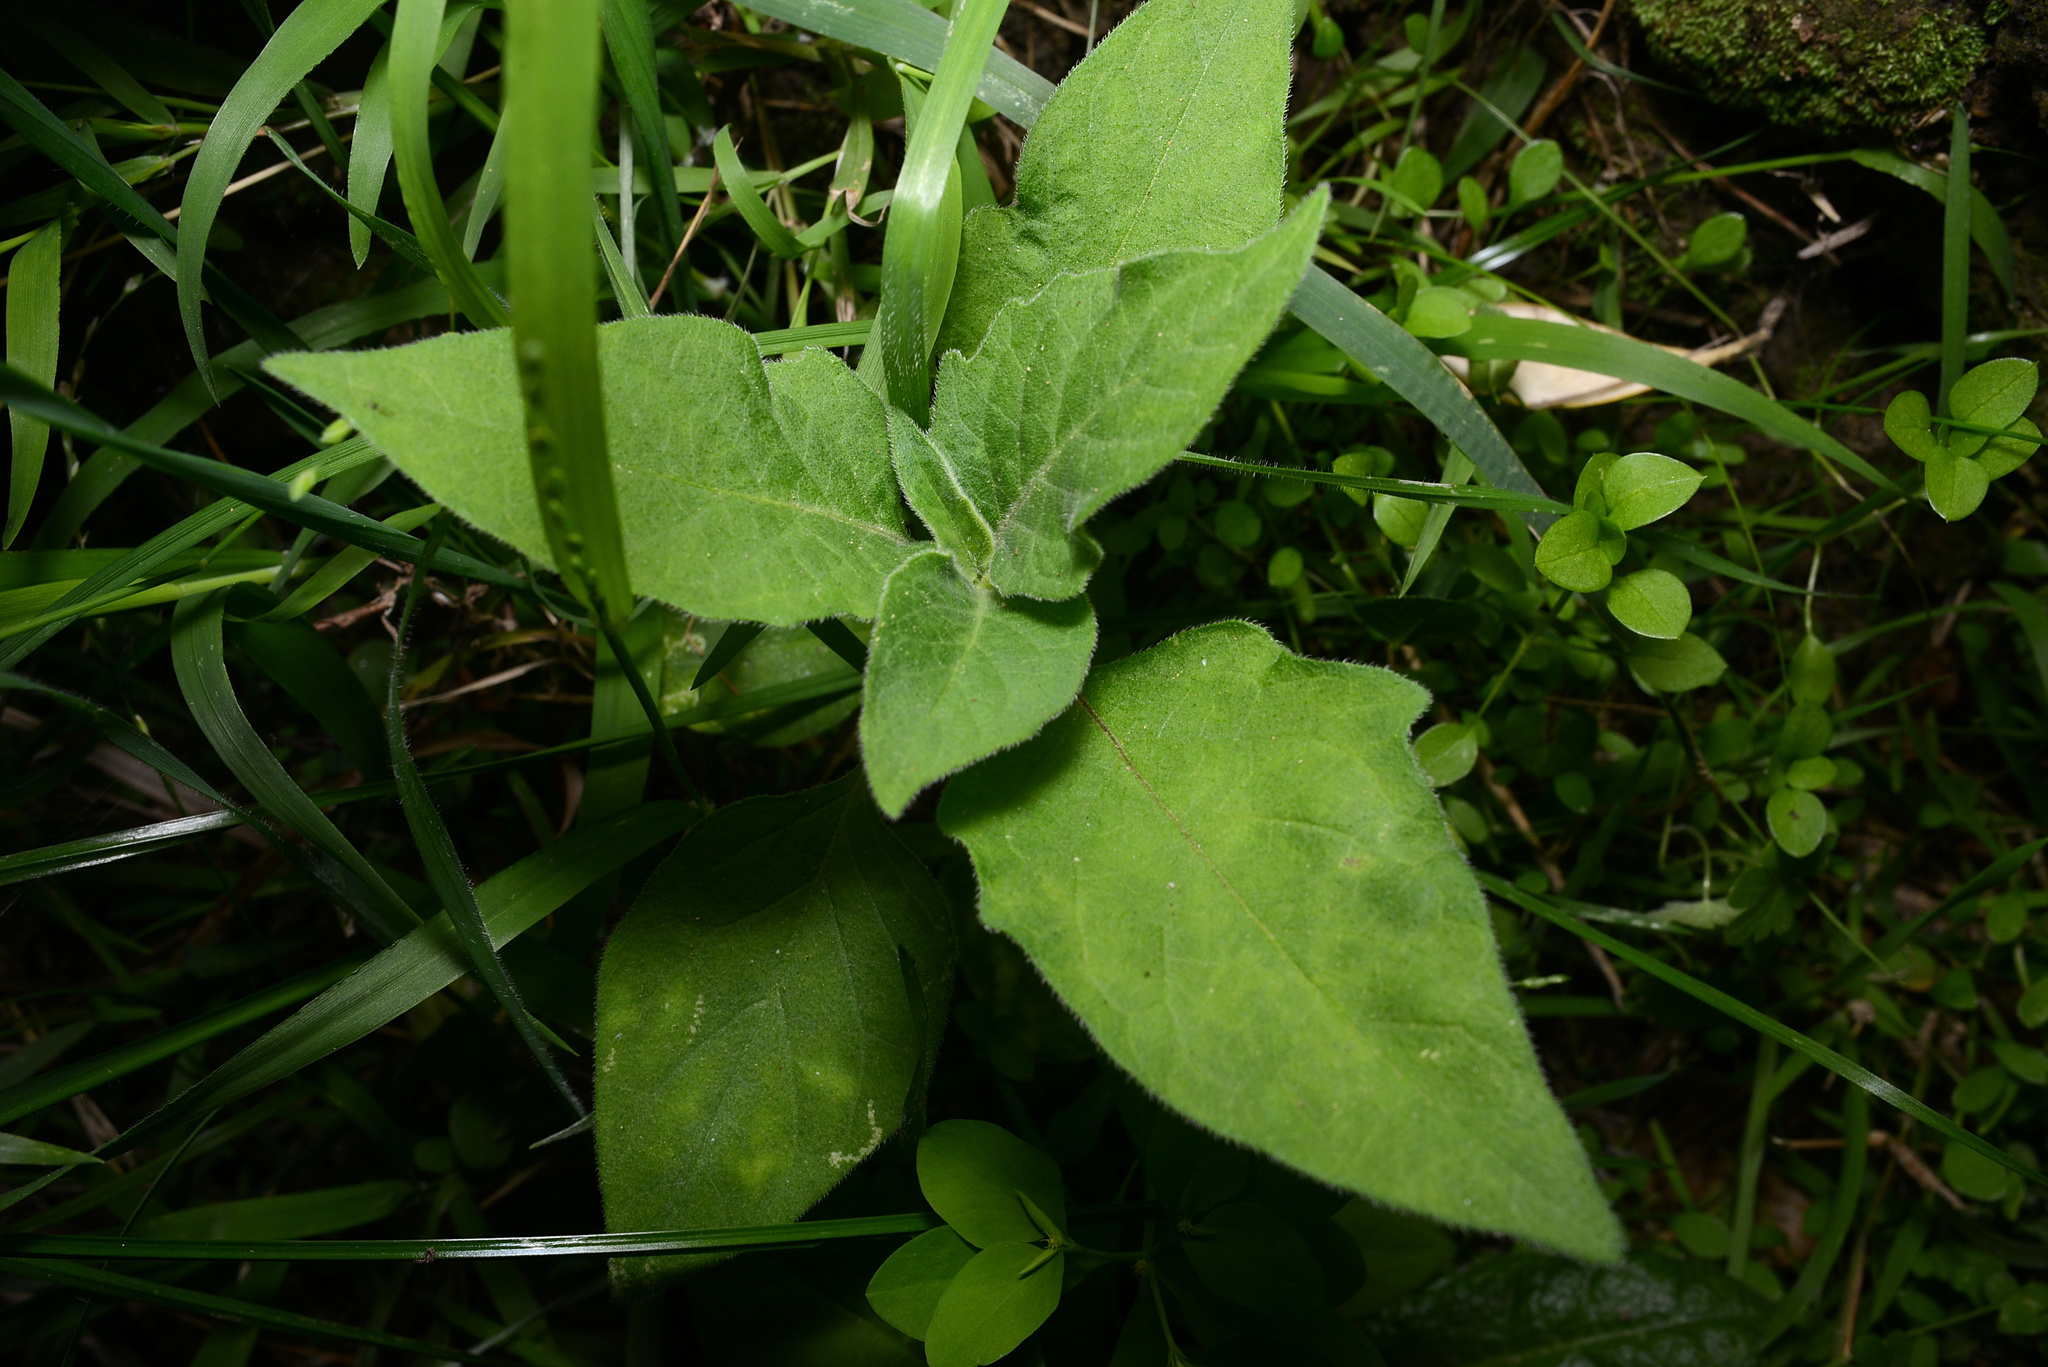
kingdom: Plantae
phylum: Tracheophyta
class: Magnoliopsida
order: Solanales
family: Solanaceae
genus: Solanum
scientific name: Solanum chenopodioides
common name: Tall nightshade
